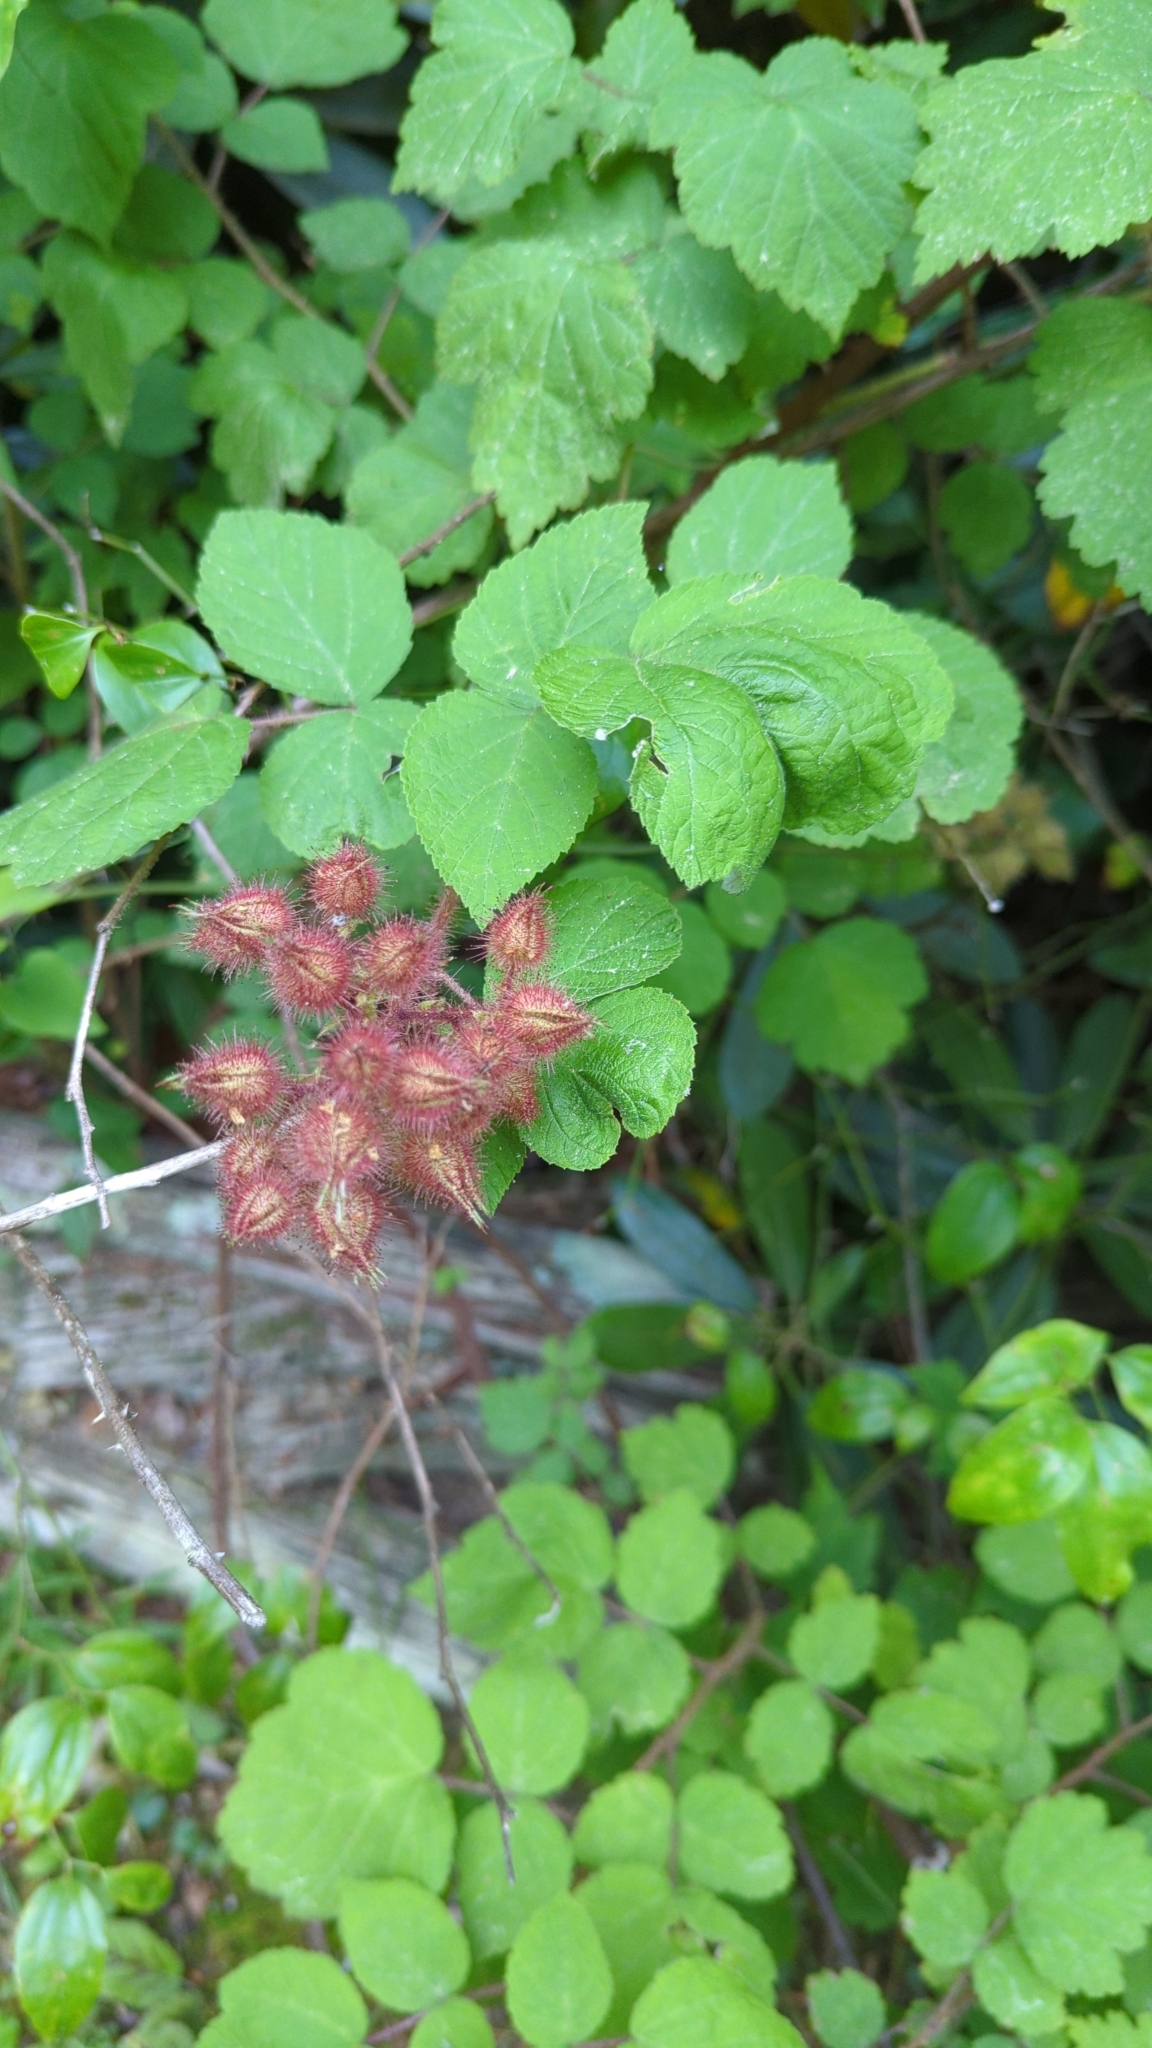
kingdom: Plantae
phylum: Tracheophyta
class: Magnoliopsida
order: Rosales
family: Rosaceae
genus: Rubus
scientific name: Rubus phoenicolasius
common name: Japanese wineberry
